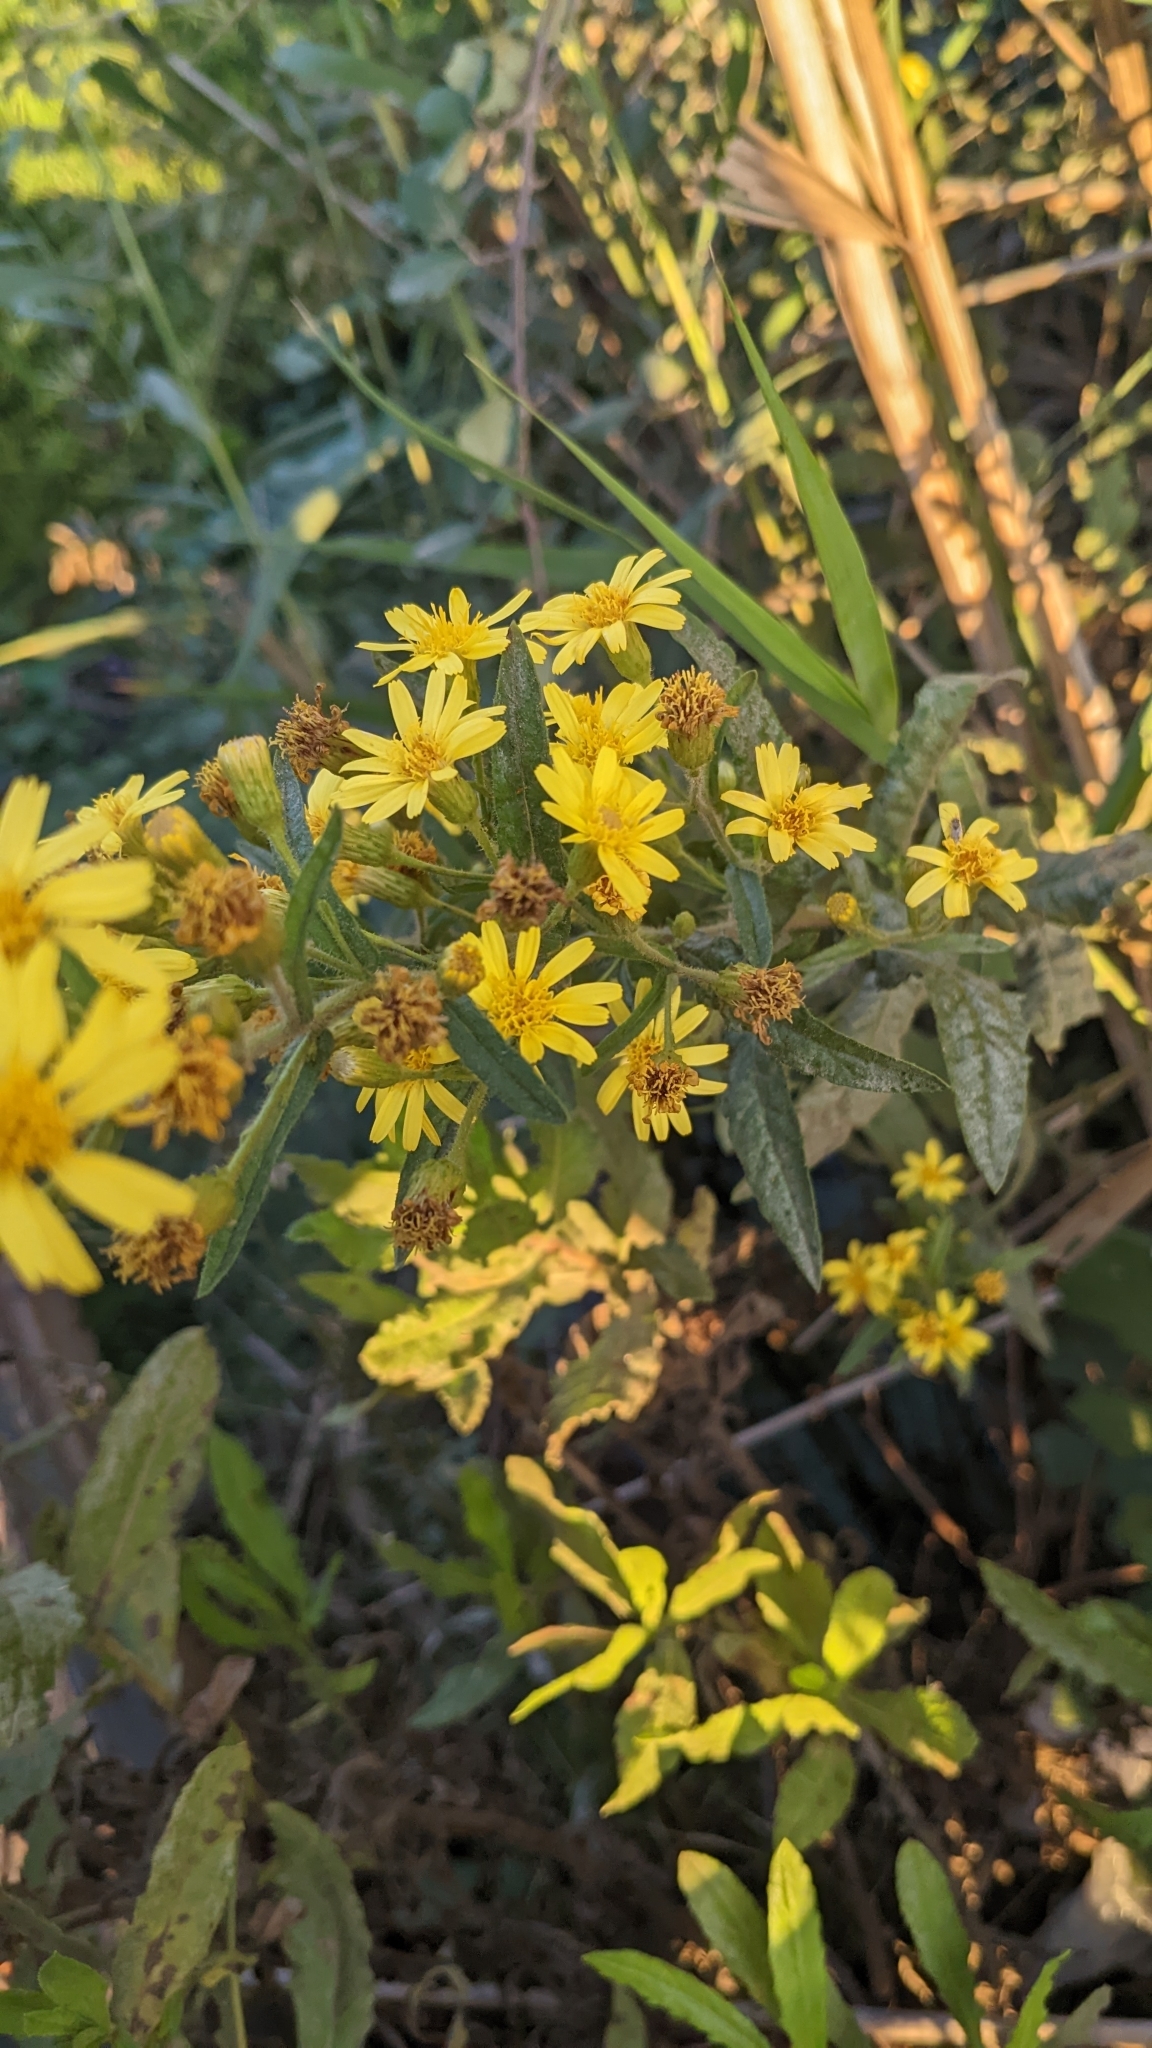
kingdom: Plantae
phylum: Tracheophyta
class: Magnoliopsida
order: Asterales
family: Asteraceae
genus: Dittrichia
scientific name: Dittrichia viscosa
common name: Woody fleabane
